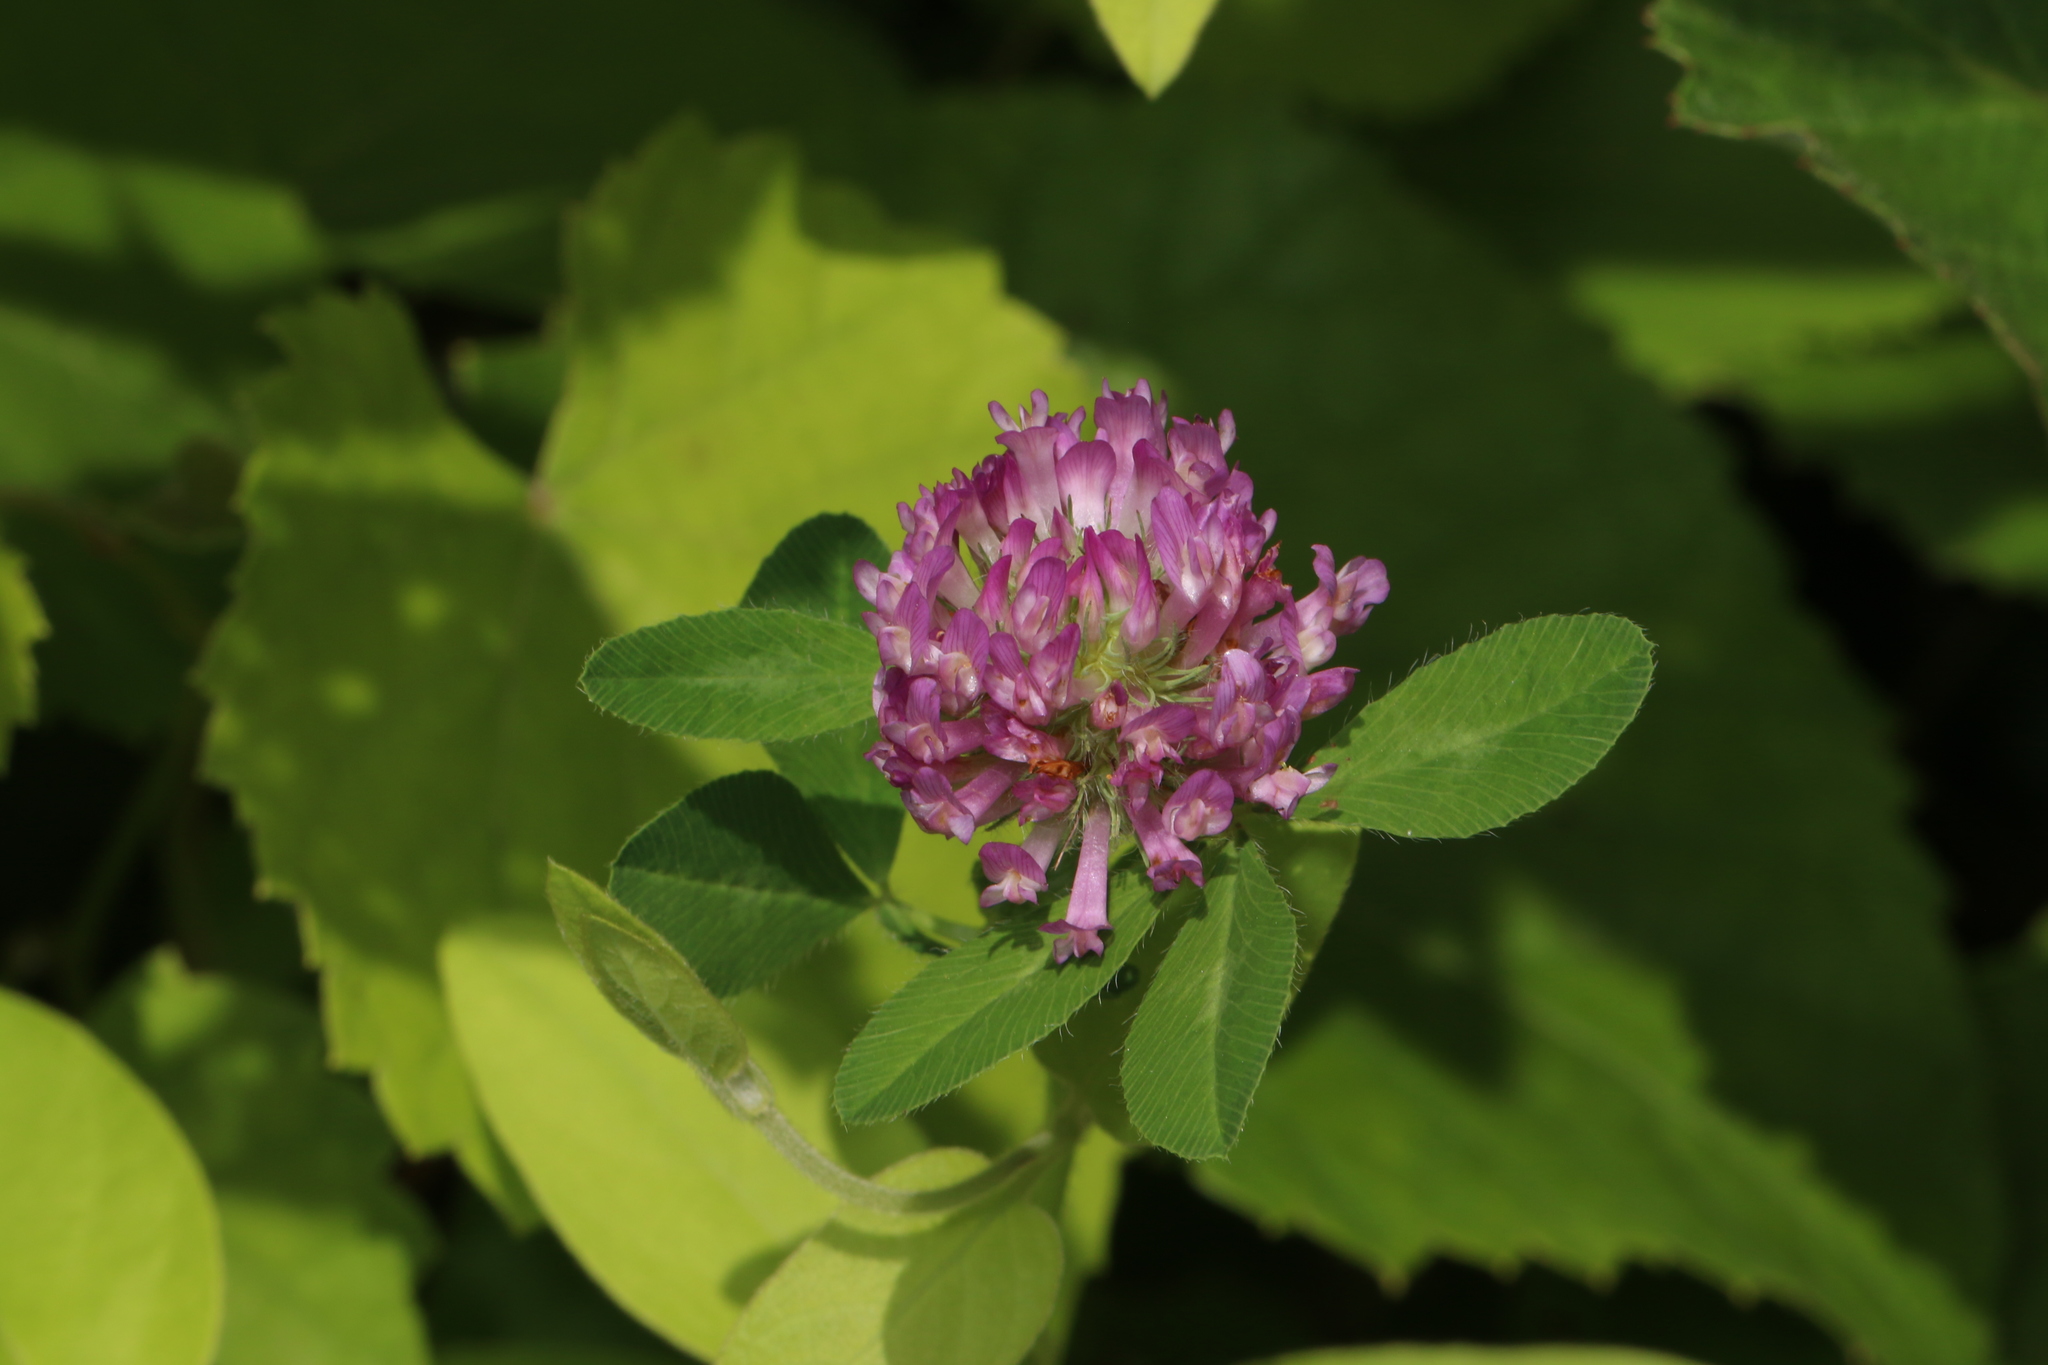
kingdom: Plantae
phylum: Tracheophyta
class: Magnoliopsida
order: Fabales
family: Fabaceae
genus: Trifolium
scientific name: Trifolium pratense
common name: Red clover
